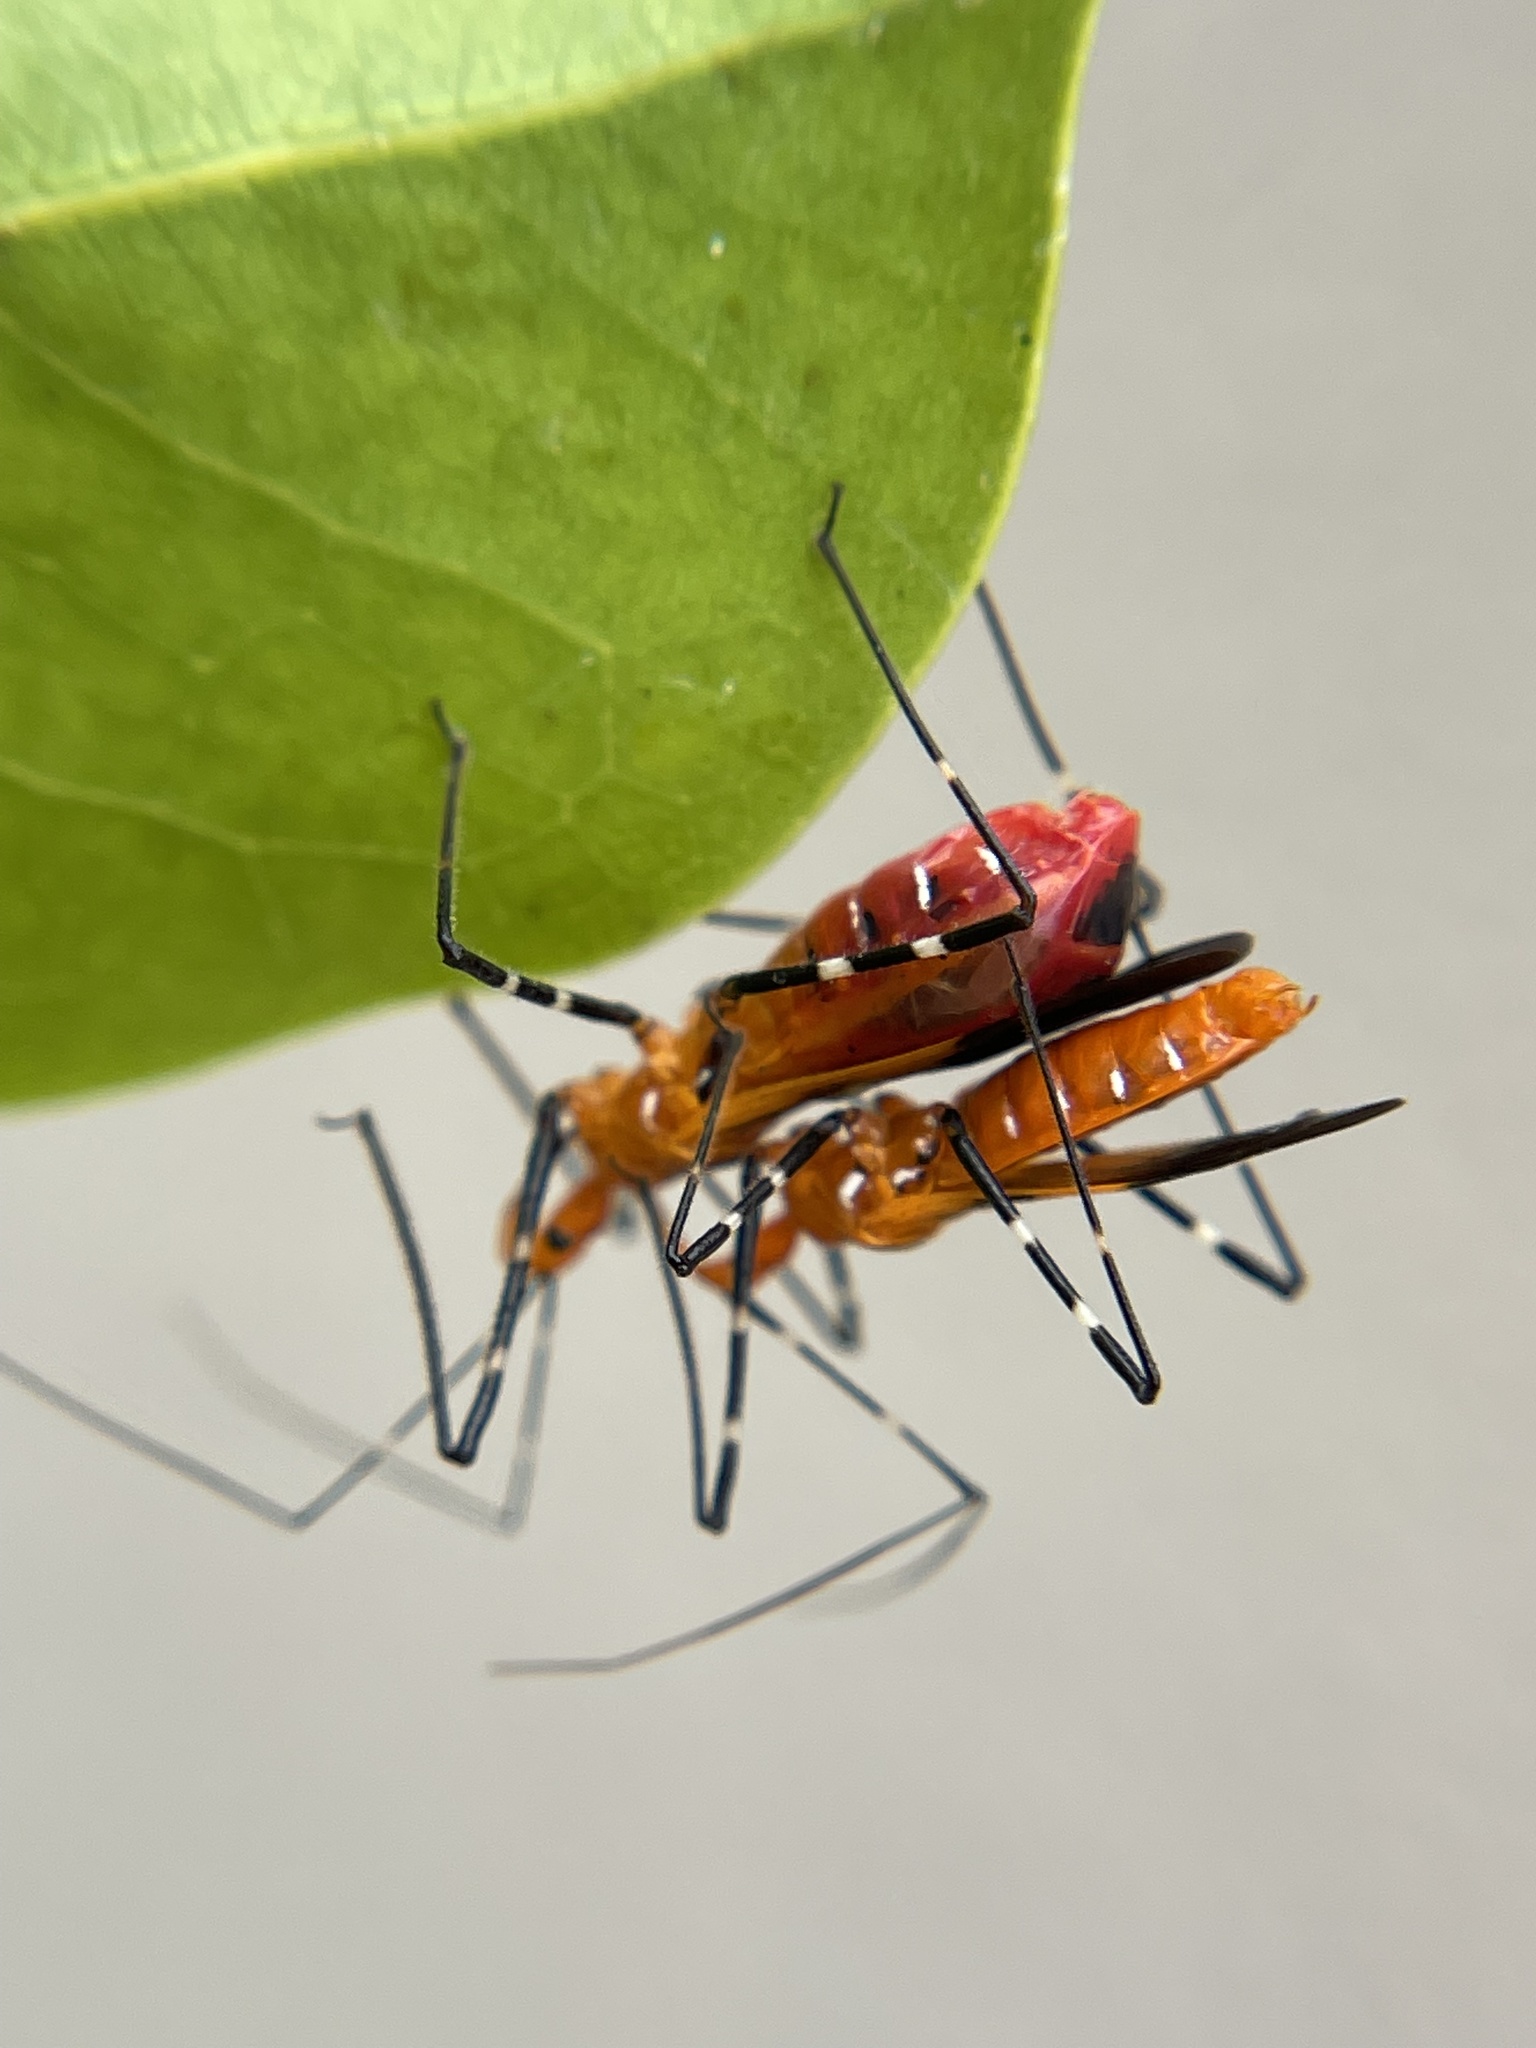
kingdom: Animalia
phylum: Arthropoda
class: Insecta
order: Hemiptera
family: Reduviidae
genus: Zelus
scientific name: Zelus longipes
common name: Milkweed assassin bug
